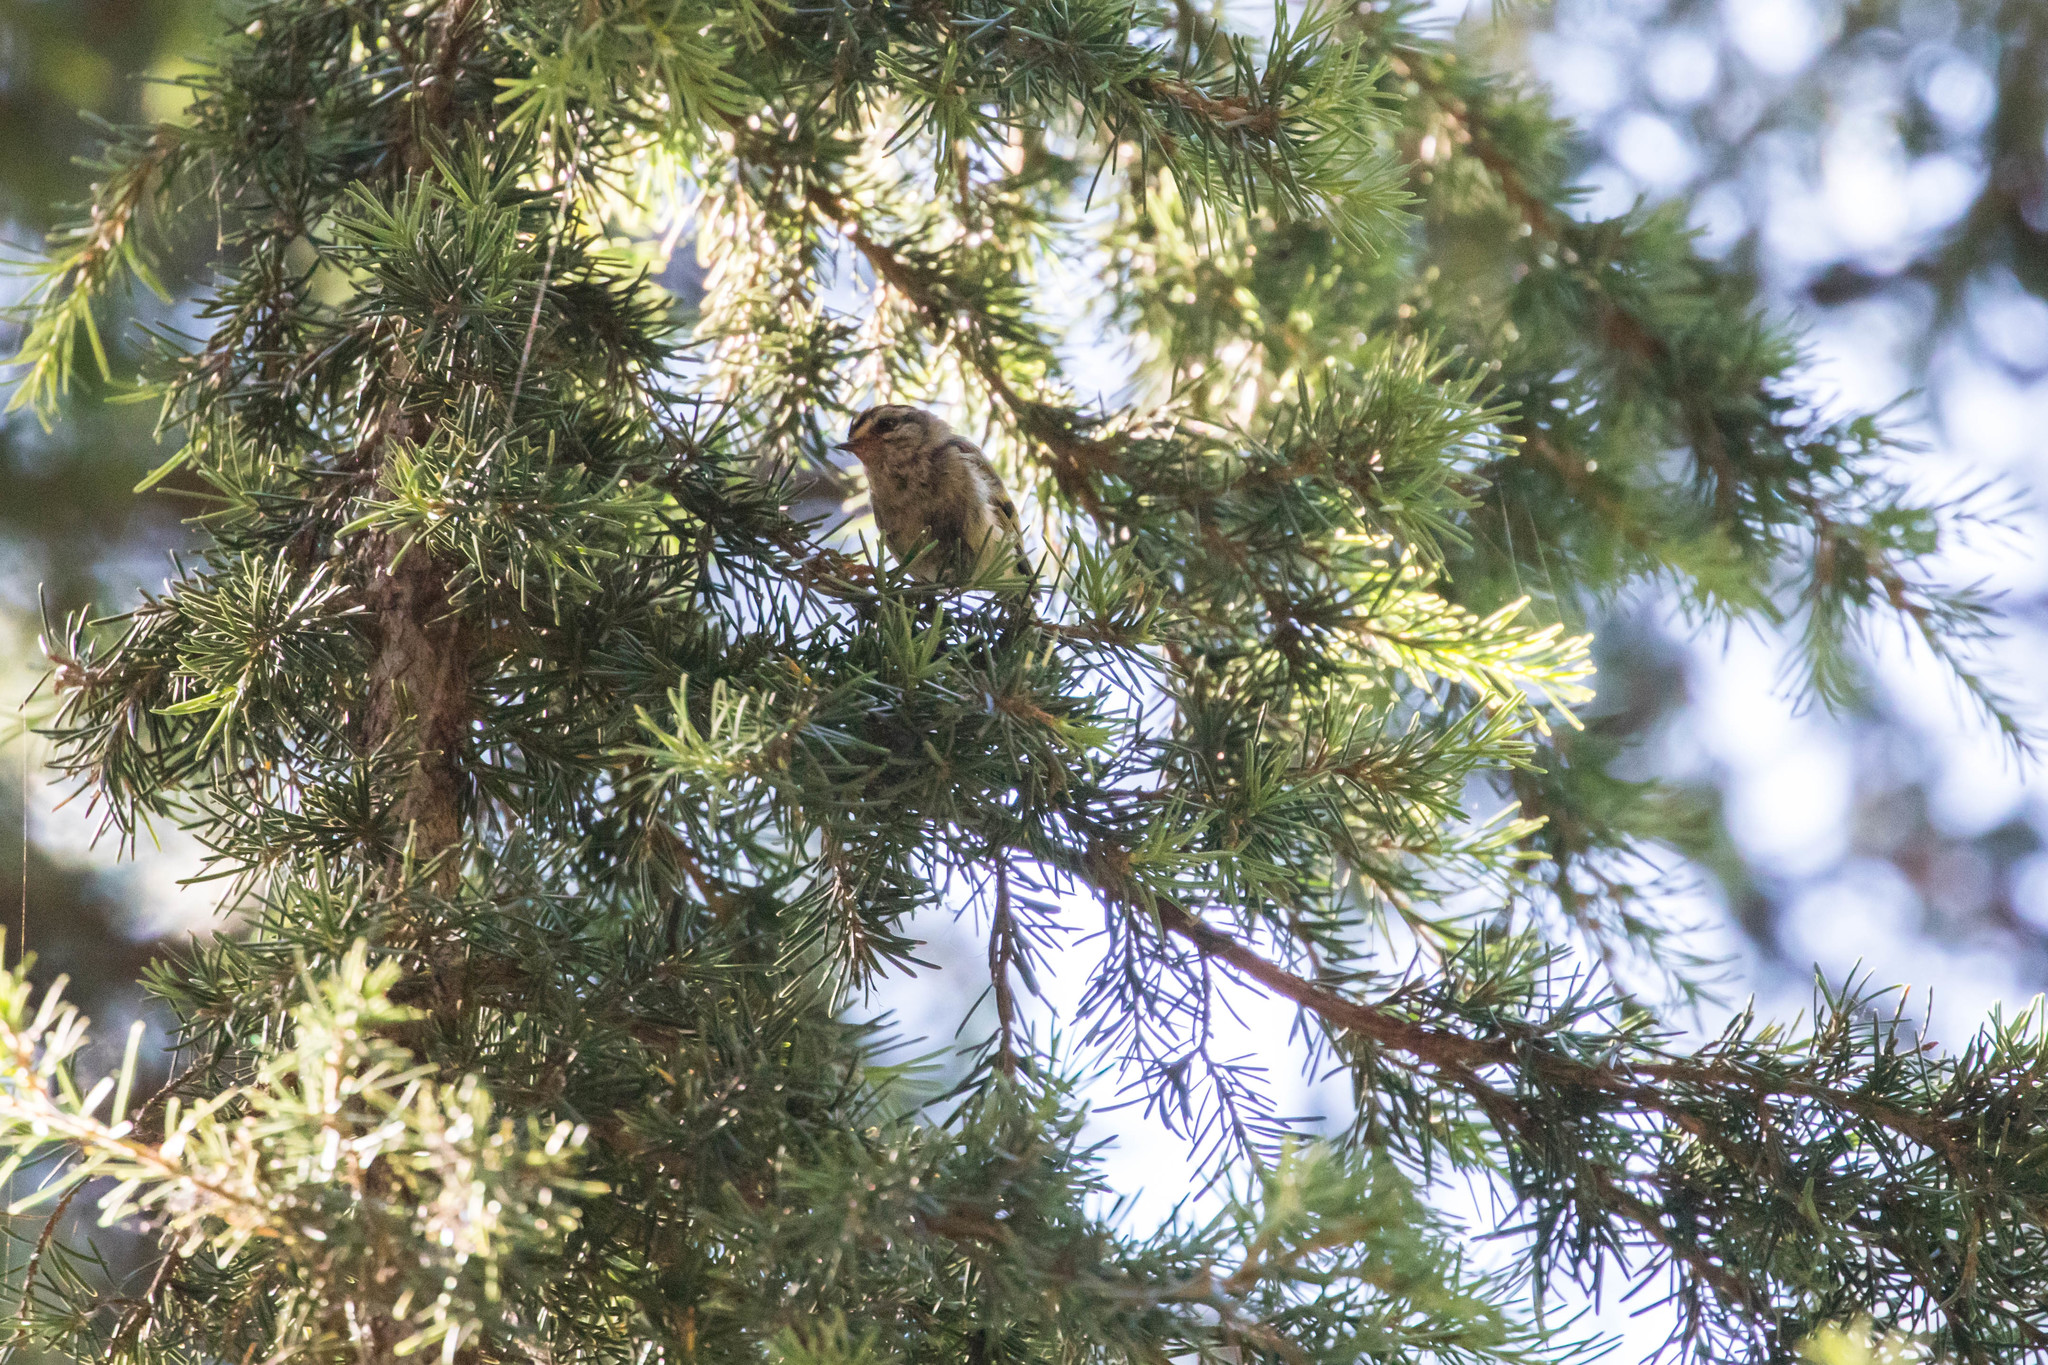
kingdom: Animalia
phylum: Chordata
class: Aves
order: Passeriformes
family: Regulidae
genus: Regulus
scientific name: Regulus satrapa
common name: Golden-crowned kinglet
